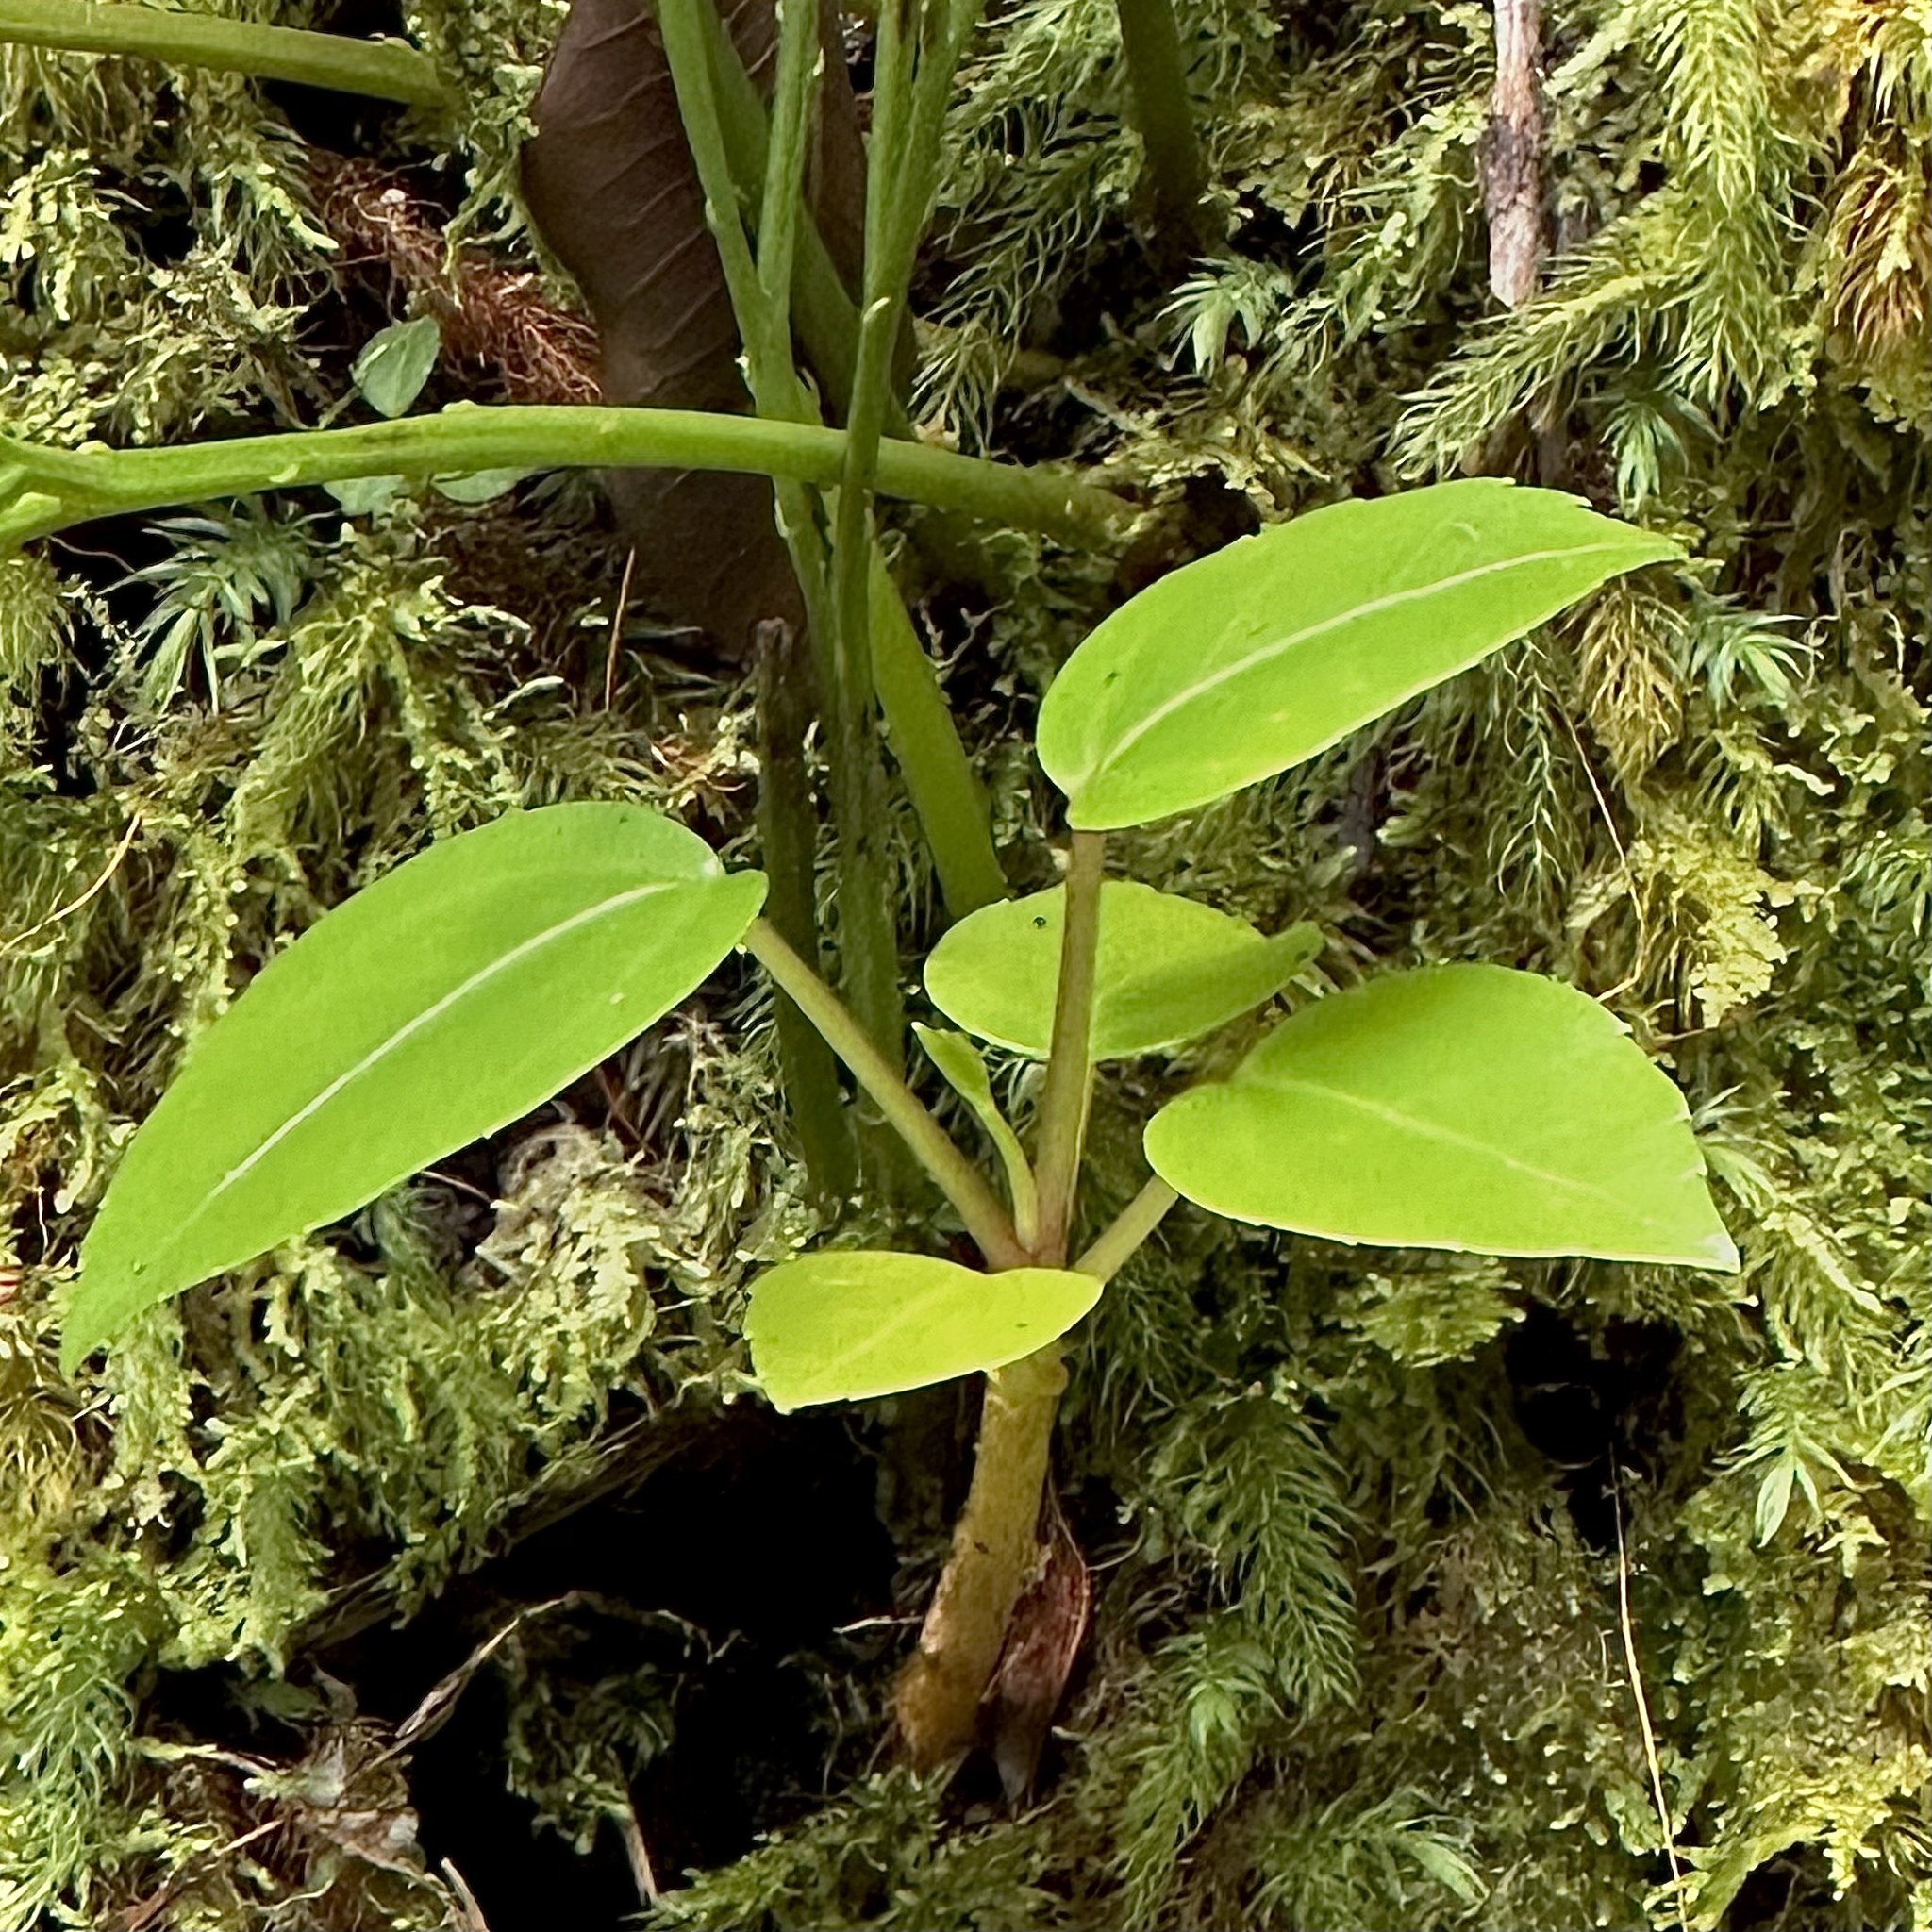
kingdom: Plantae
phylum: Tracheophyta
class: Magnoliopsida
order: Apiales
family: Araliaceae
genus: Cheirodendron
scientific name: Cheirodendron trigynum
